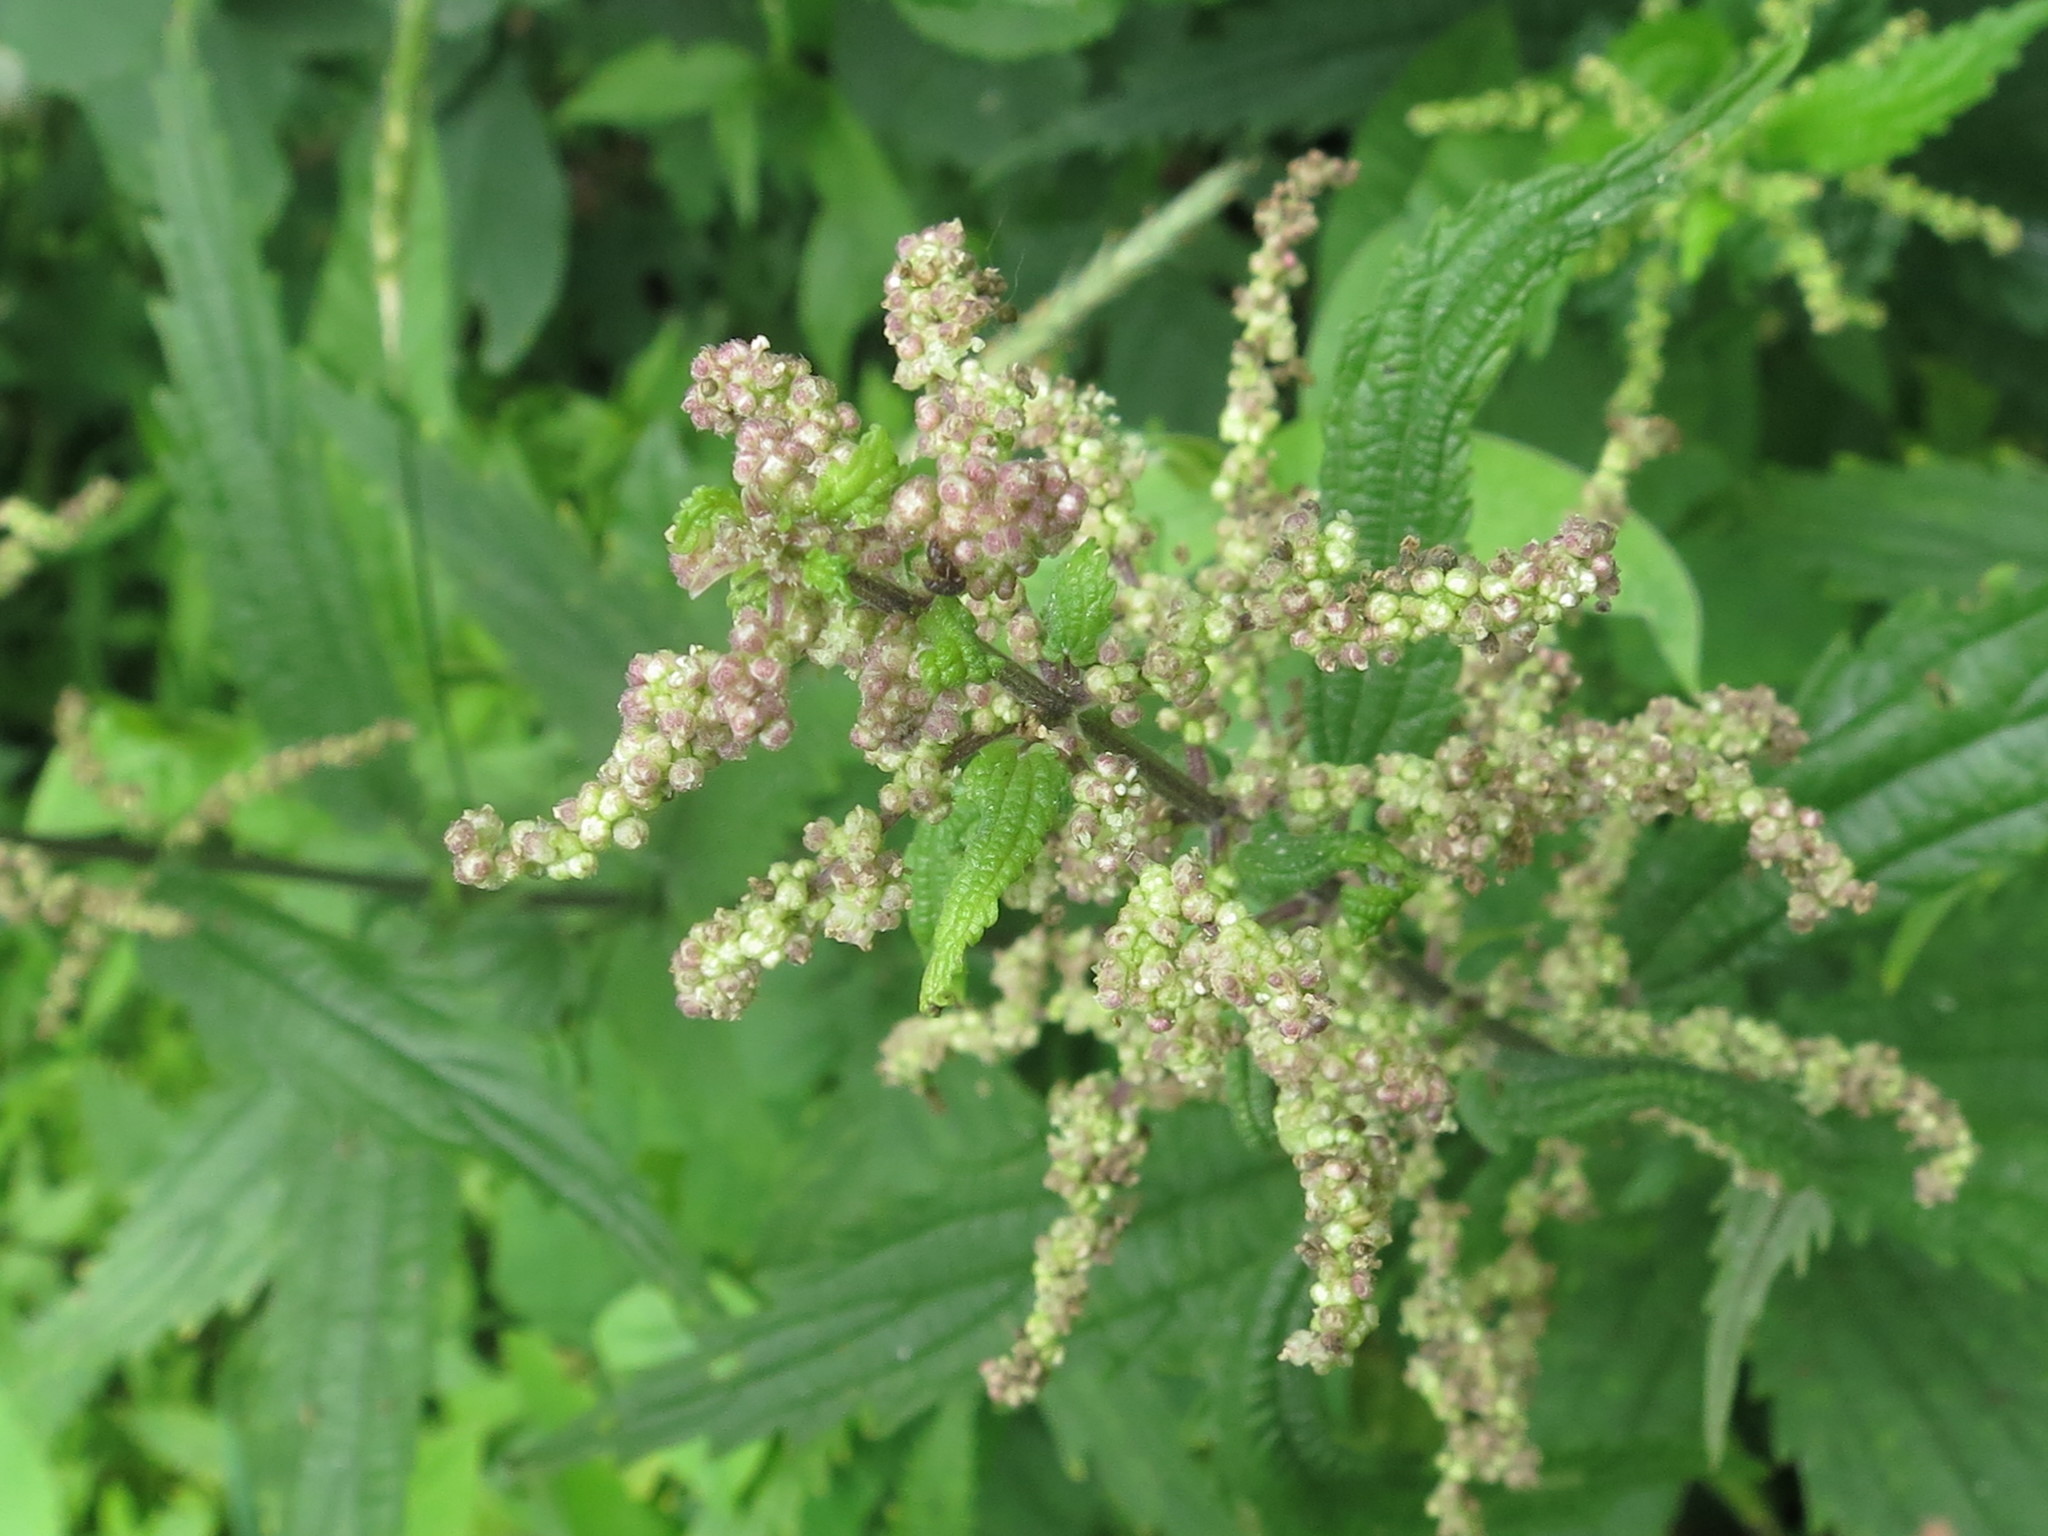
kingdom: Plantae
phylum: Tracheophyta
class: Magnoliopsida
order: Rosales
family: Urticaceae
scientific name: Urticaceae
